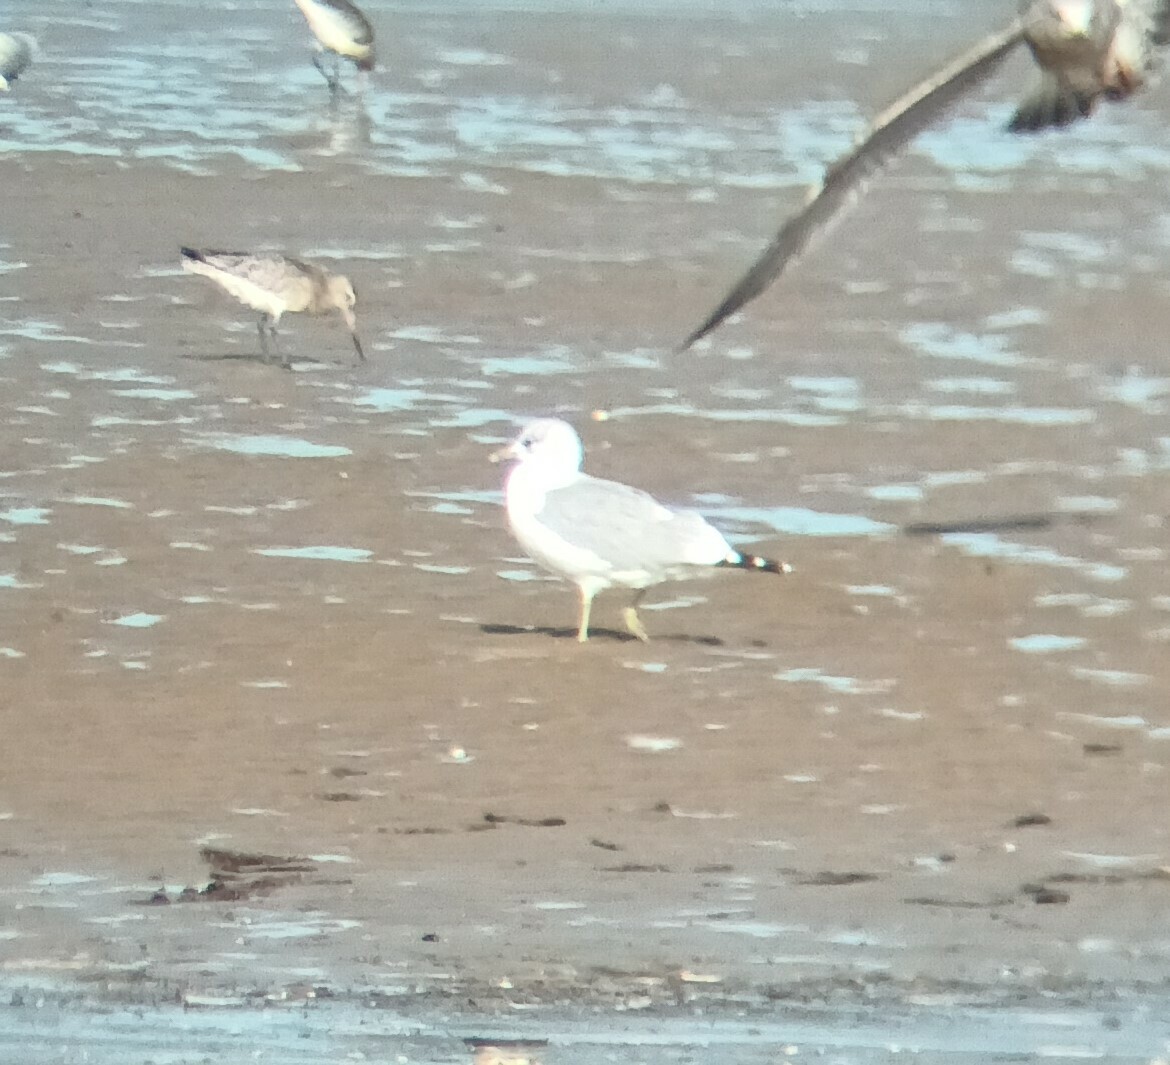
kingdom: Animalia
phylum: Chordata
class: Aves
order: Charadriiformes
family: Laridae
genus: Larus
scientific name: Larus canus
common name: Mew gull
